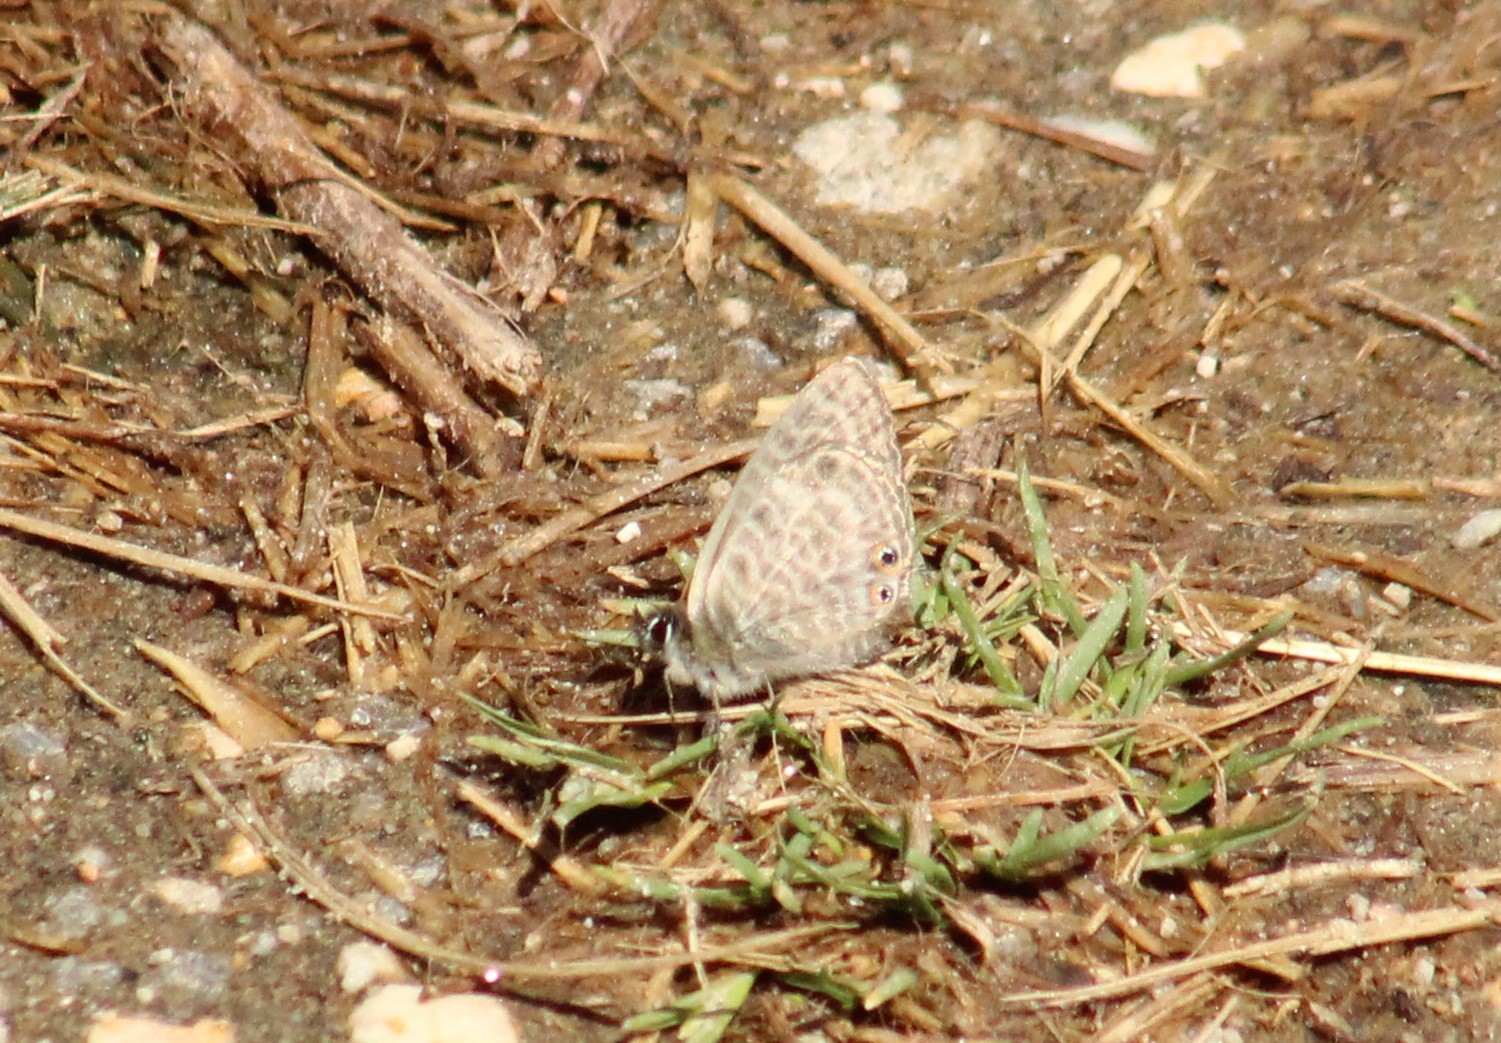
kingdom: Animalia
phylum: Arthropoda
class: Insecta
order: Lepidoptera
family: Lycaenidae
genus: Leptotes
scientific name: Leptotes pirithous
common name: Lang's short-tailed blue
